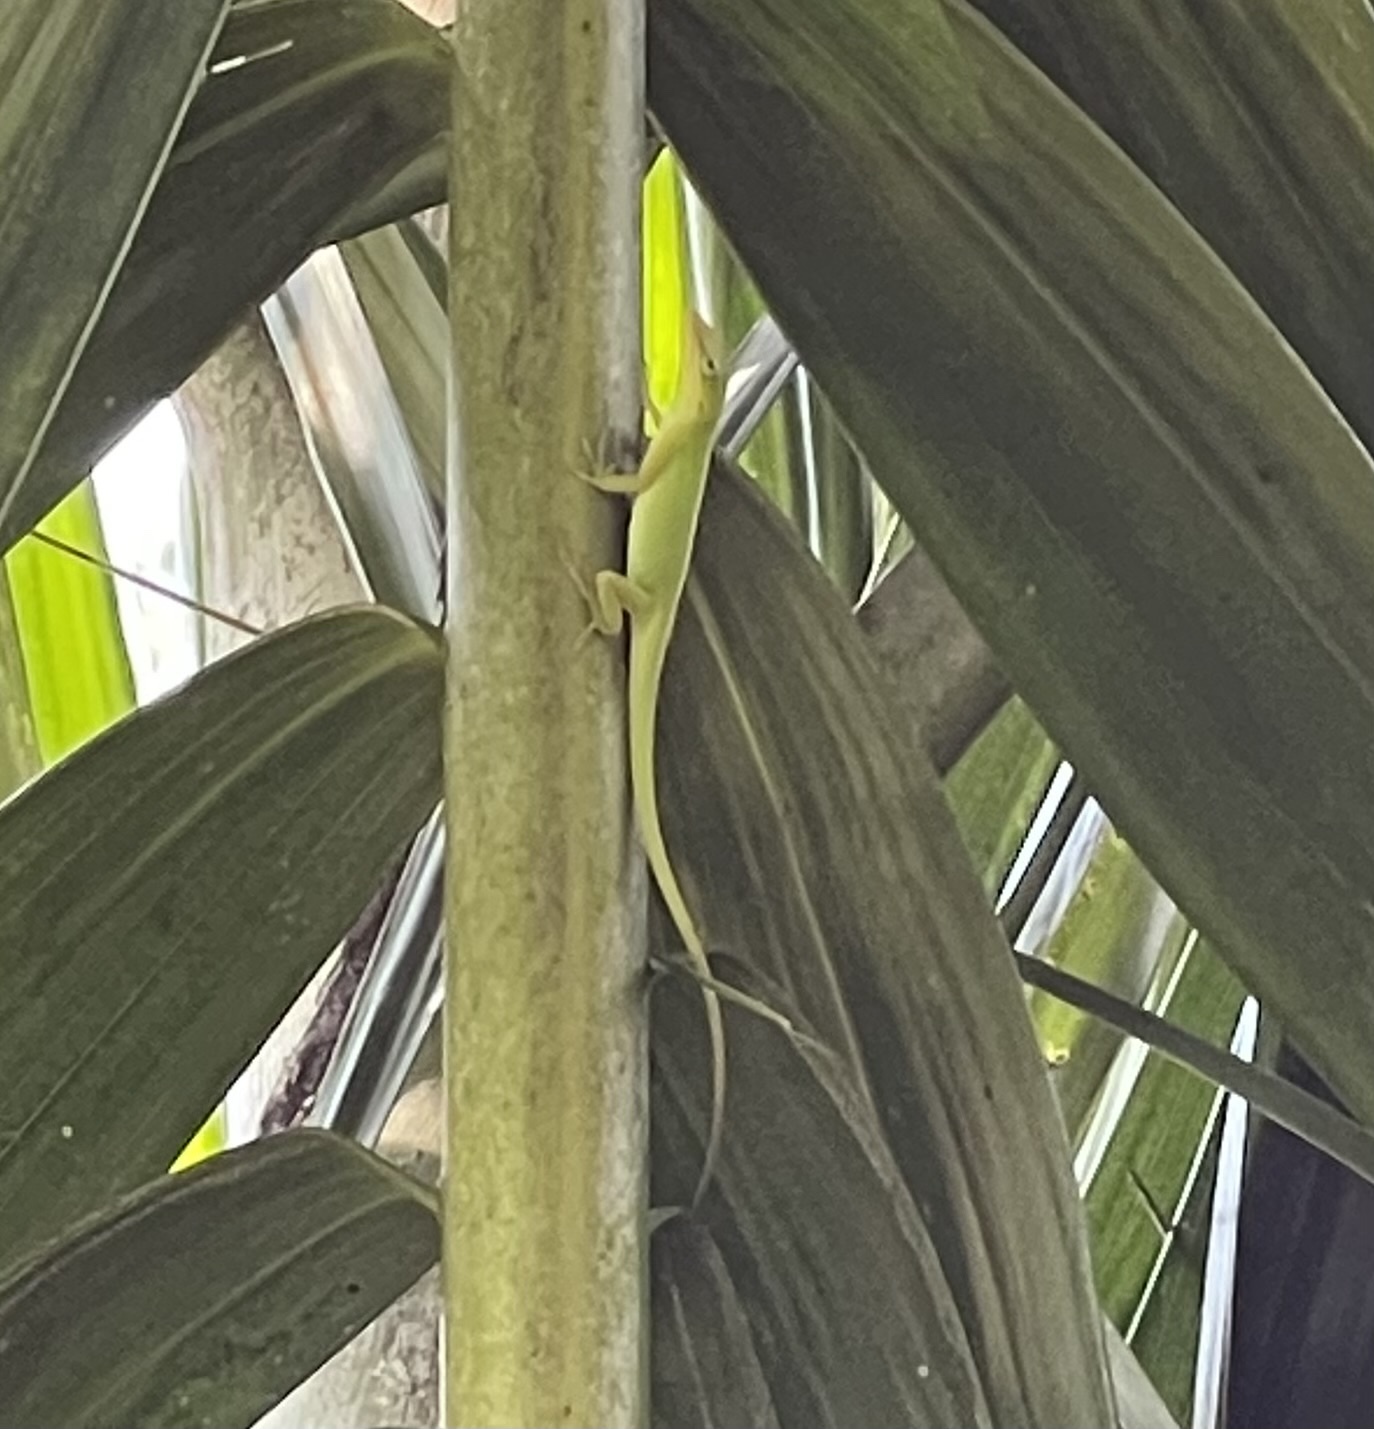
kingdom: Animalia
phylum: Chordata
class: Squamata
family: Dactyloidae
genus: Anolis
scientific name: Anolis carolinensis
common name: Green anole
